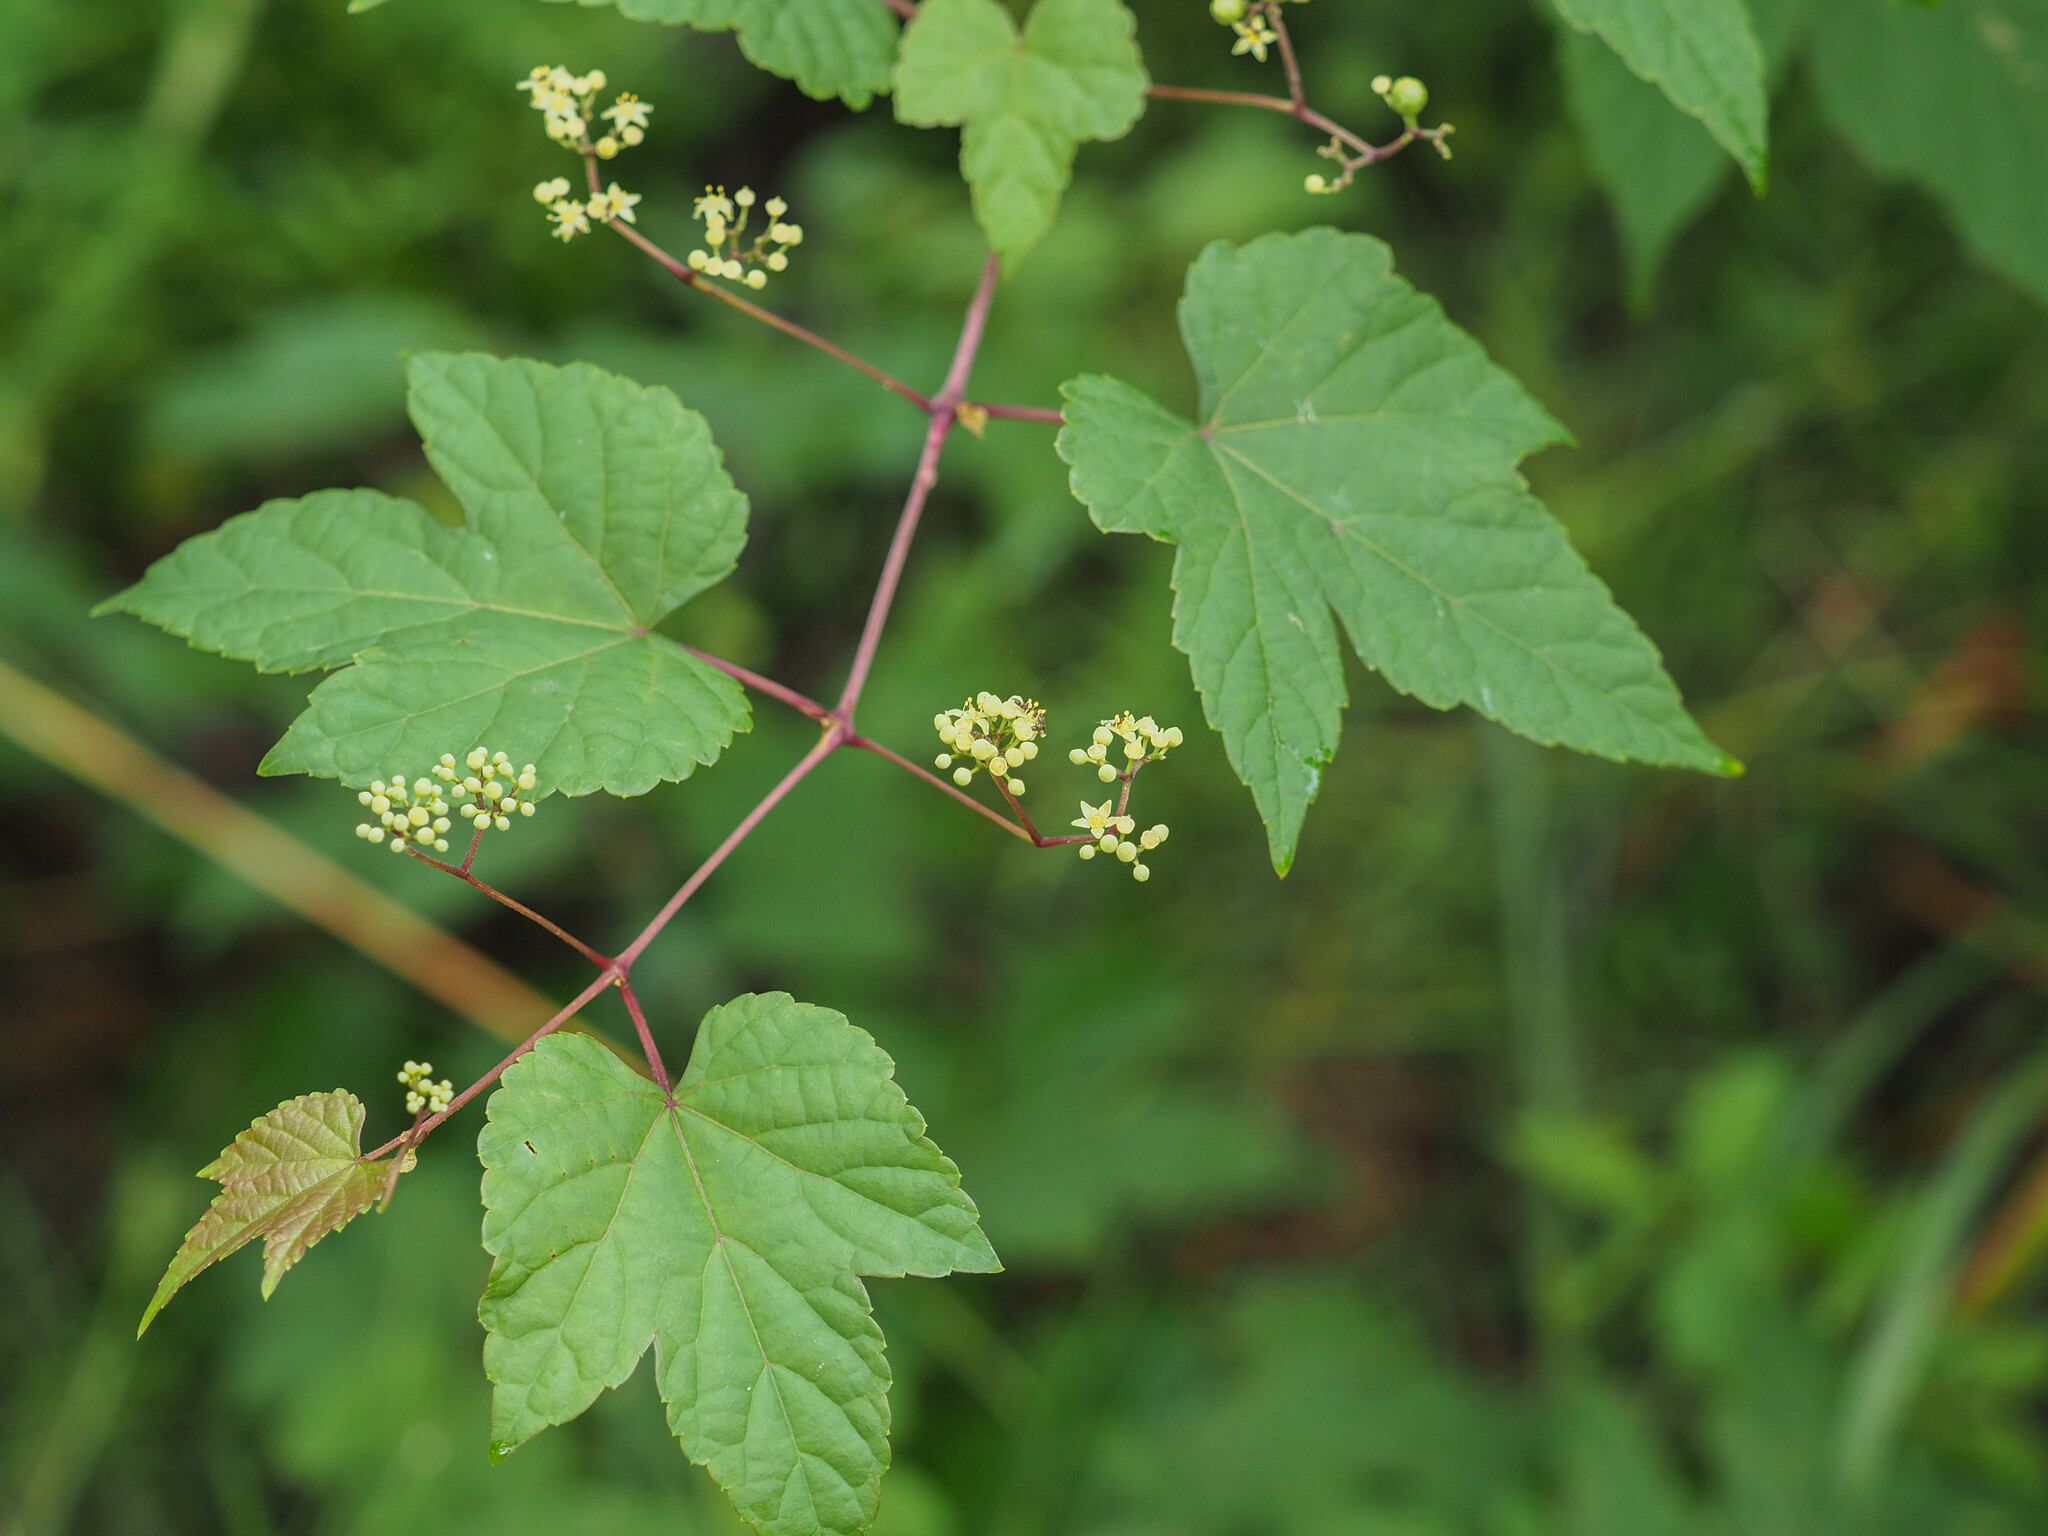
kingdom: Plantae
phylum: Tracheophyta
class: Magnoliopsida
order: Vitales
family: Vitaceae
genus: Ampelopsis
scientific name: Ampelopsis glandulosa
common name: Amur peppervine
